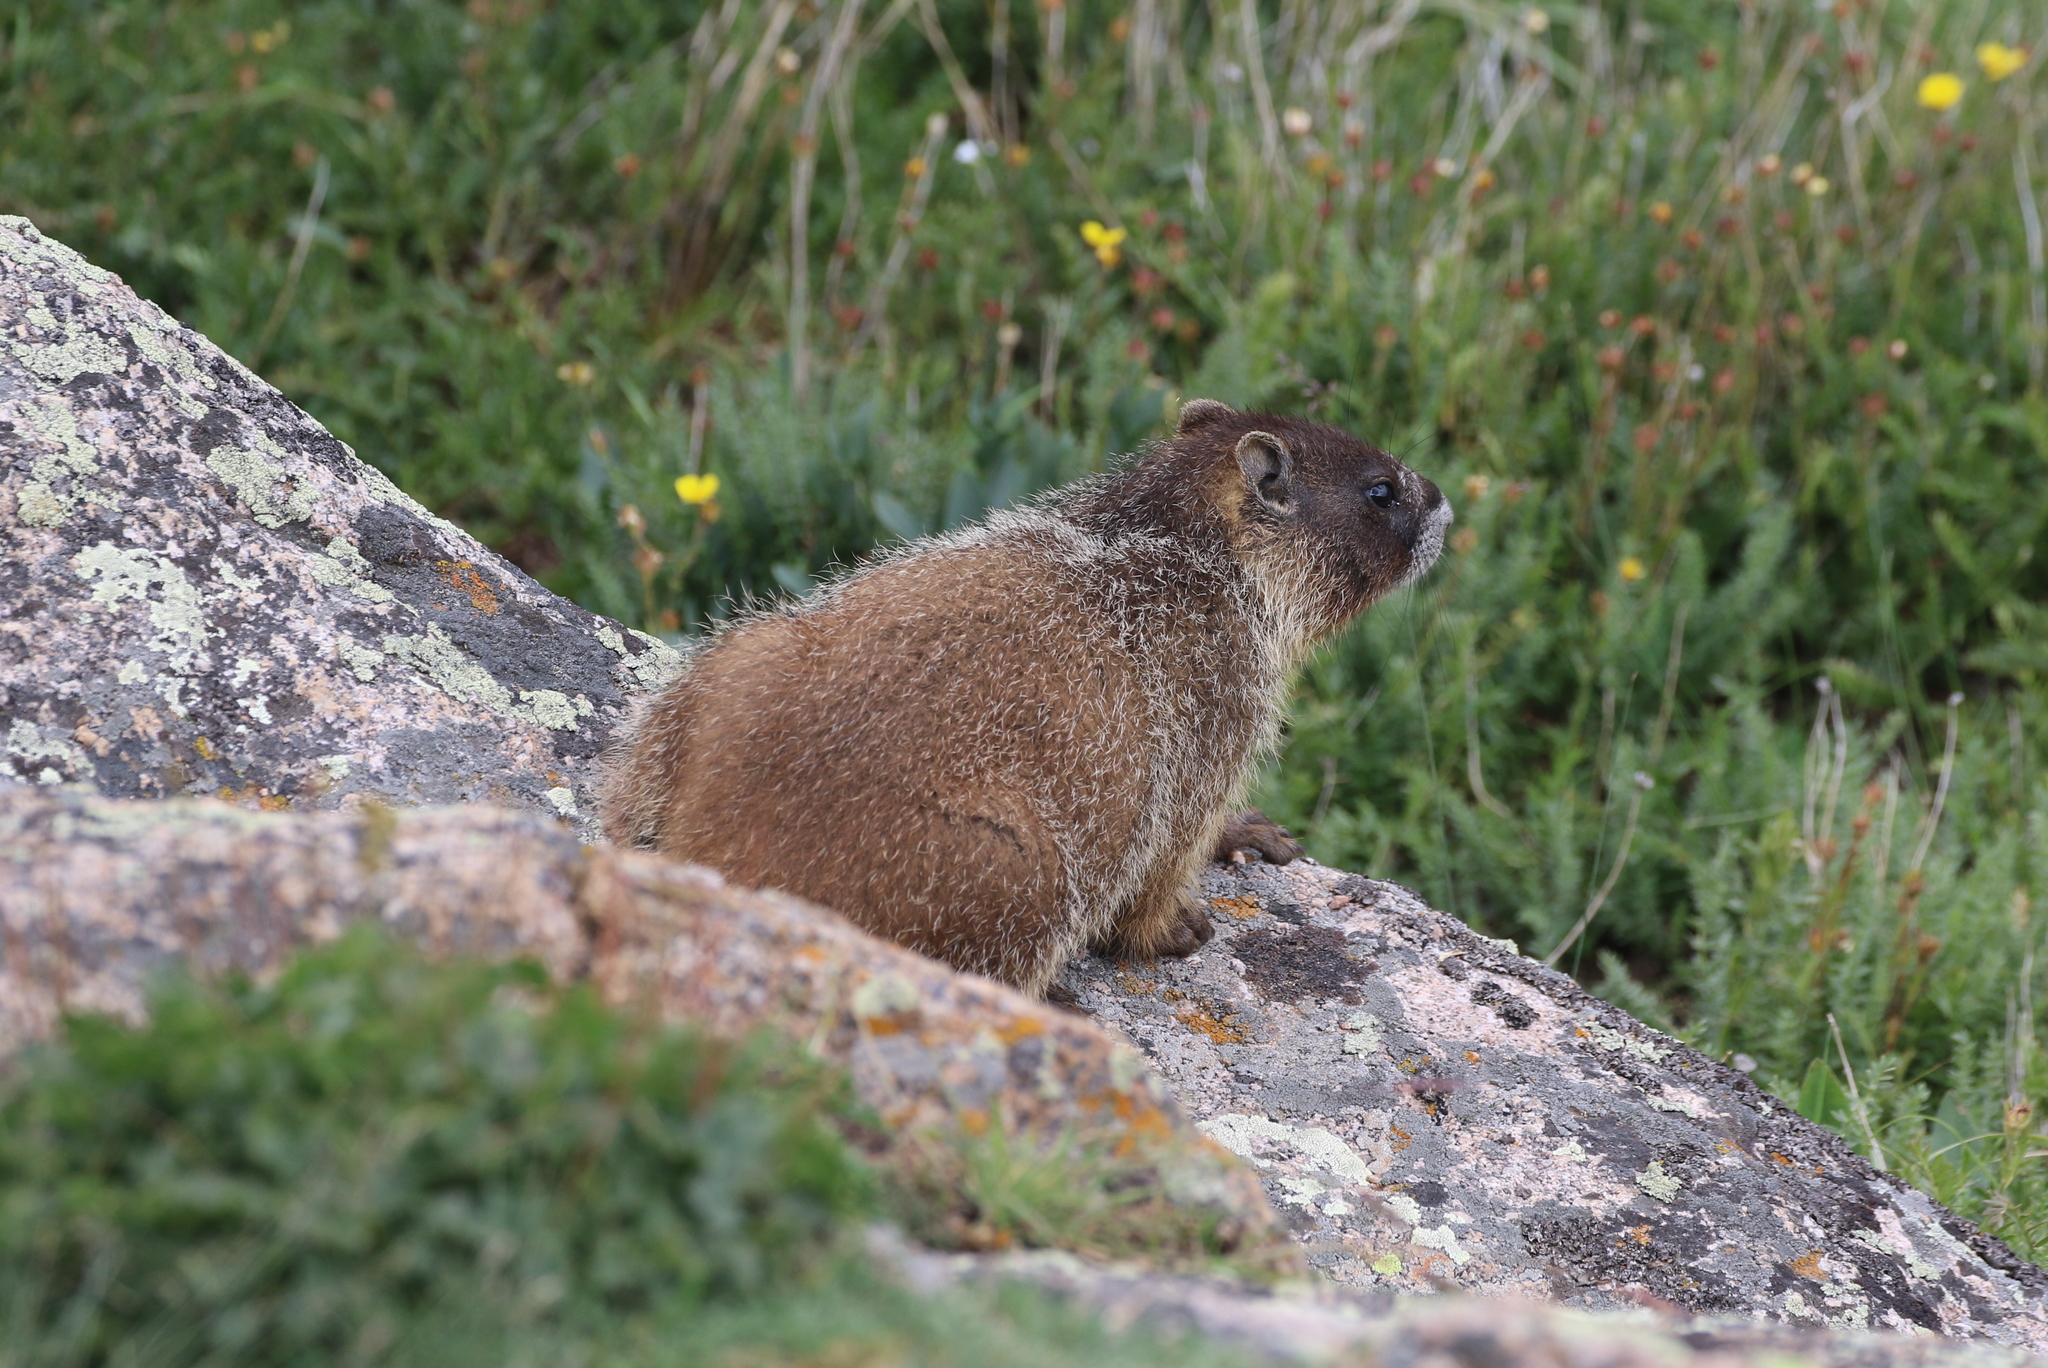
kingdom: Animalia
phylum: Chordata
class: Mammalia
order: Rodentia
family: Sciuridae
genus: Marmota
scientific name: Marmota flaviventris
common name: Yellow-bellied marmot
